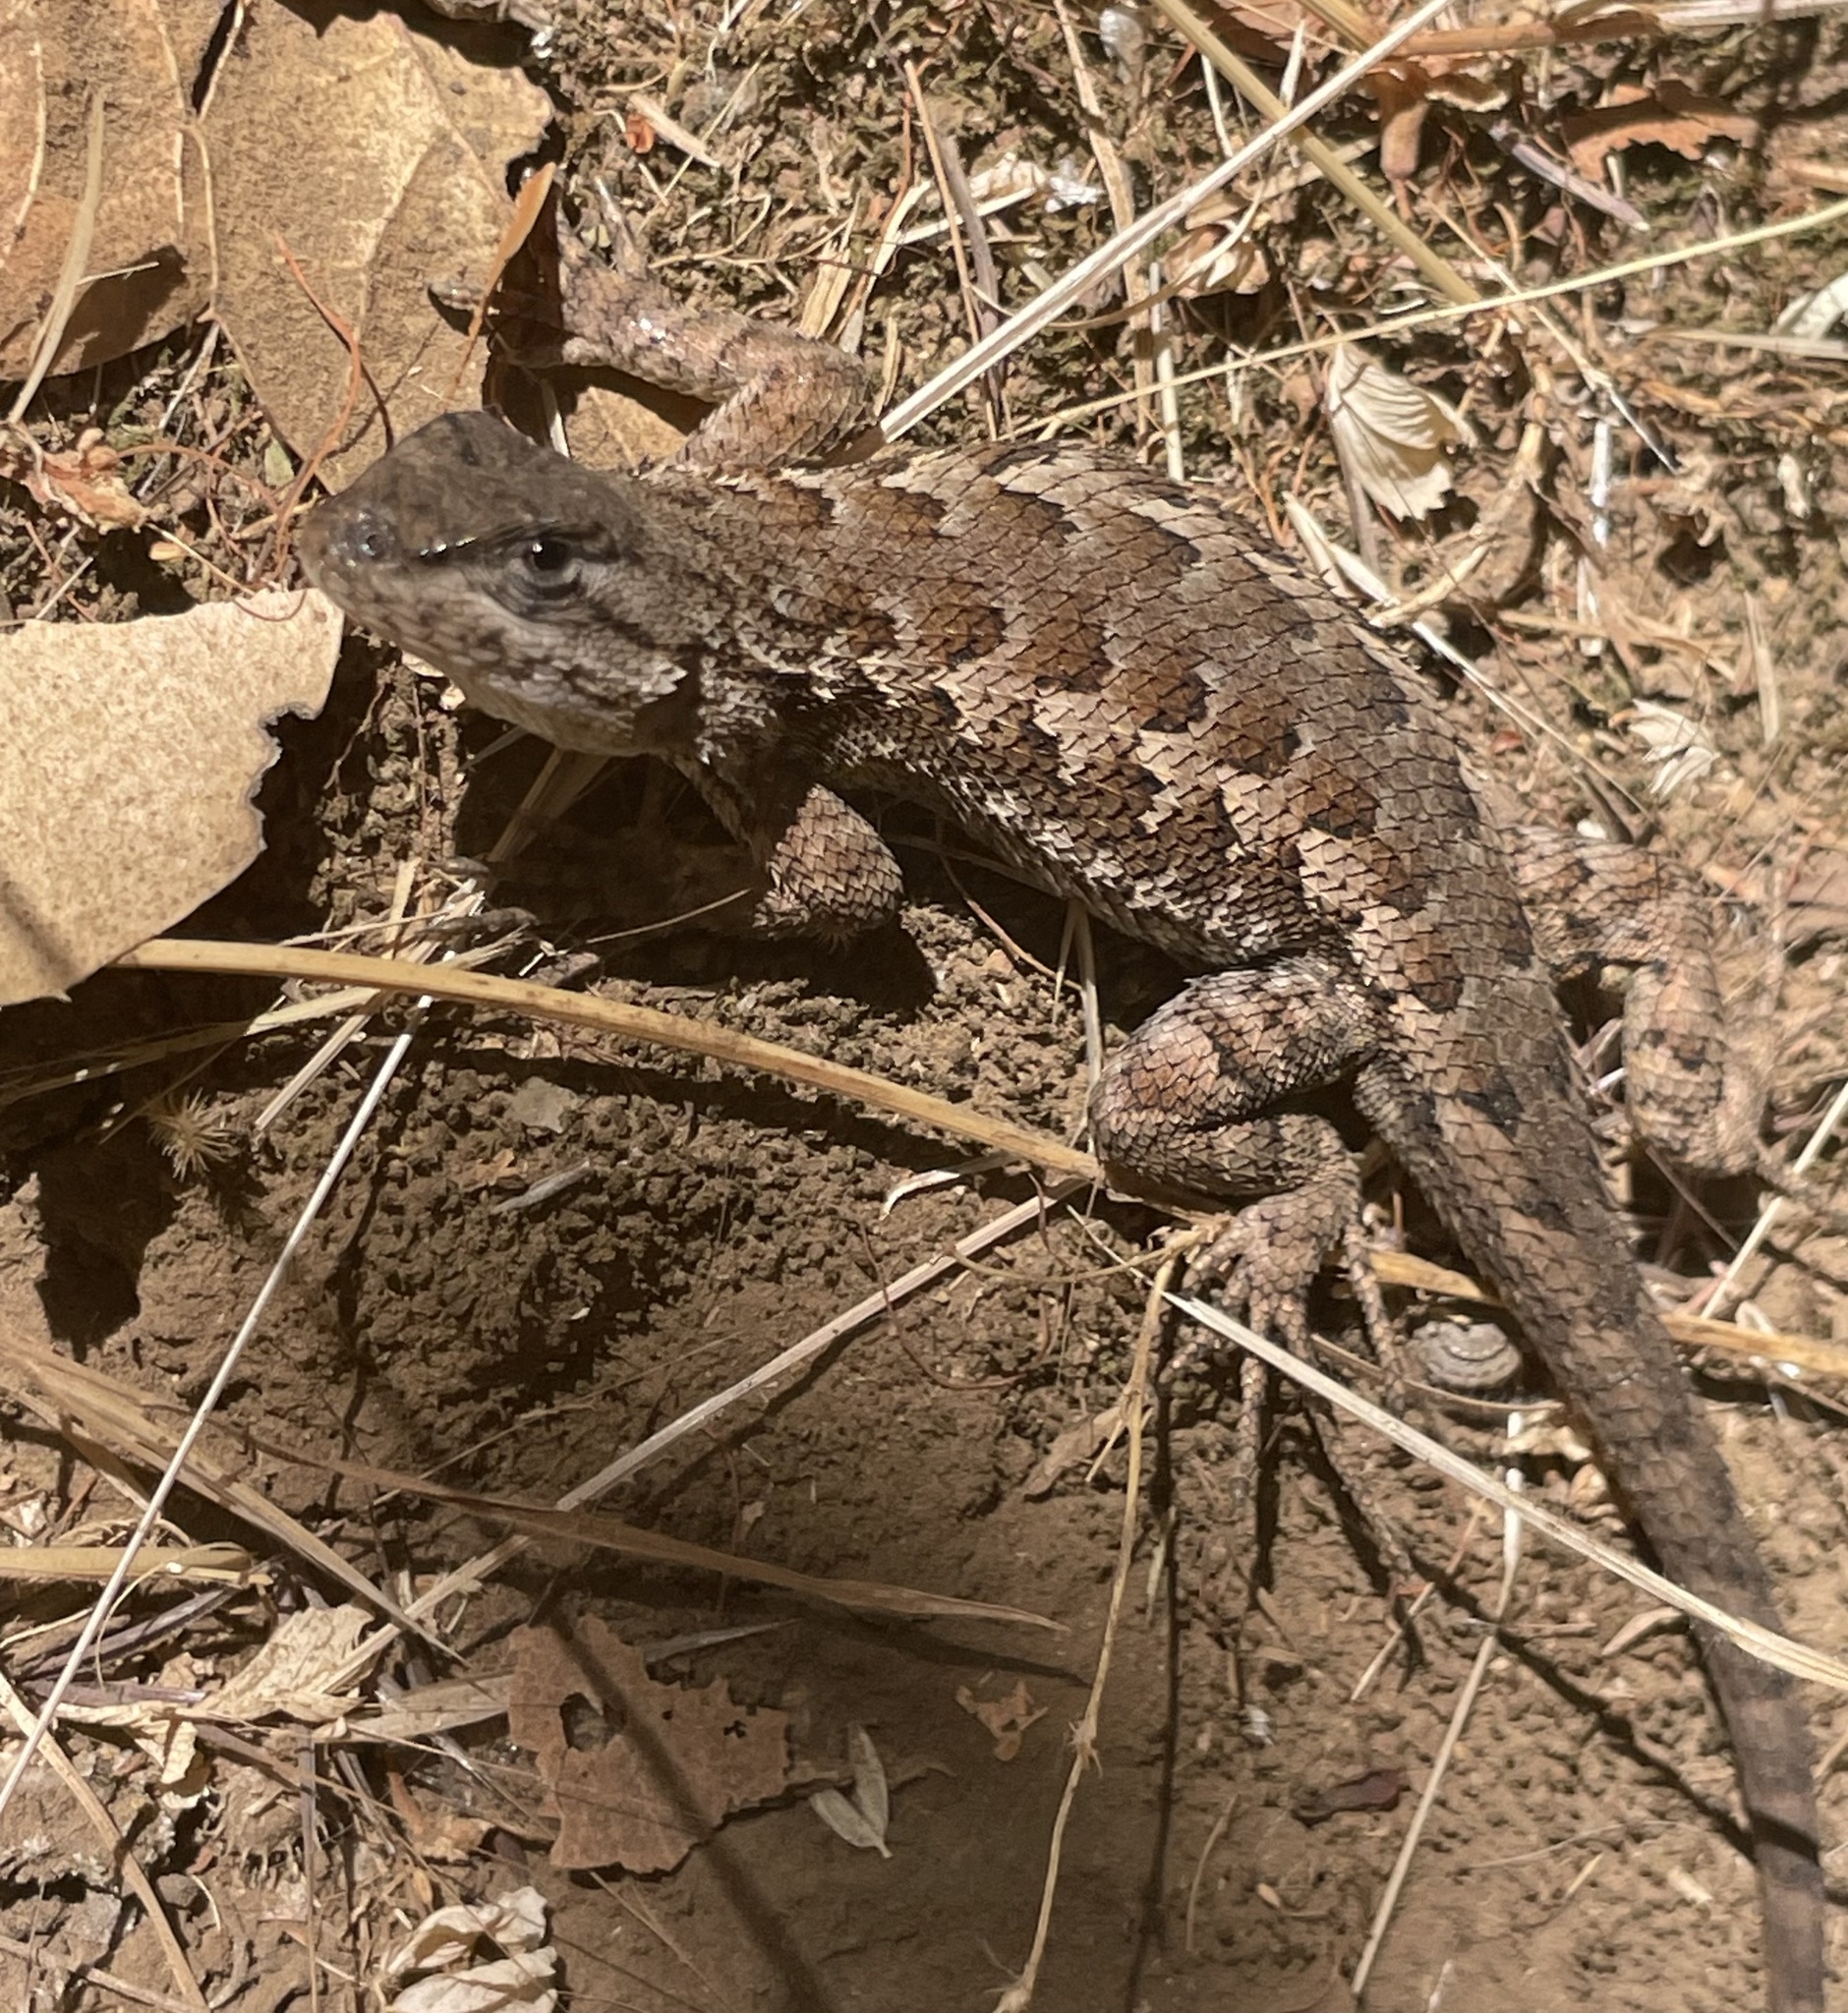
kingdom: Animalia
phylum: Chordata
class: Squamata
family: Phrynosomatidae
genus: Sceloporus
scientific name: Sceloporus occidentalis
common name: Western fence lizard
